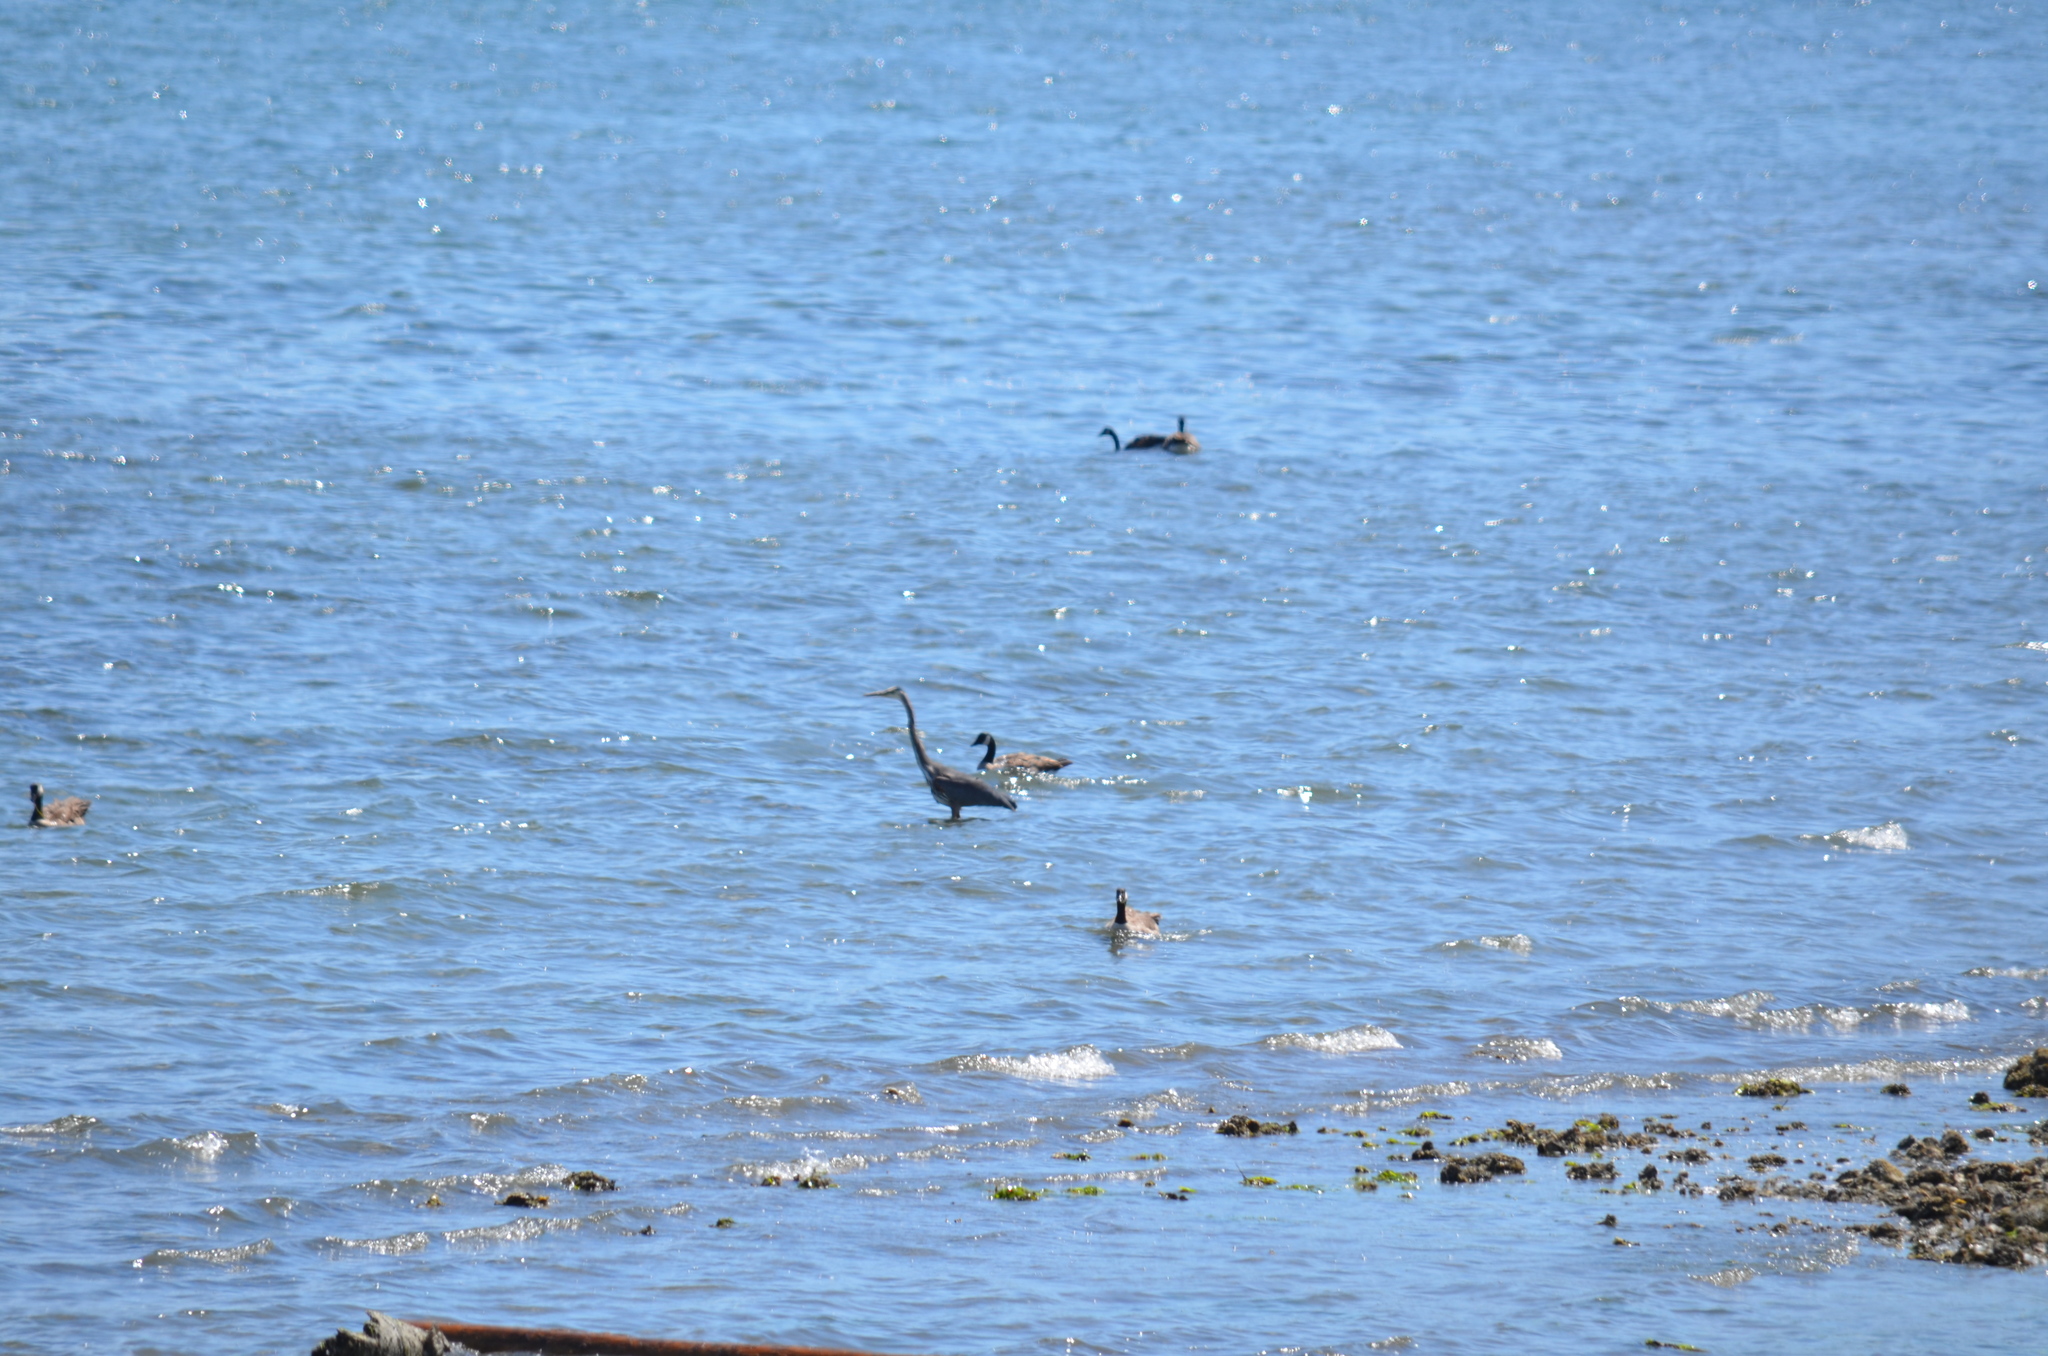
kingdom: Animalia
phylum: Chordata
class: Aves
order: Pelecaniformes
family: Ardeidae
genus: Ardea
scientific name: Ardea herodias
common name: Great blue heron
